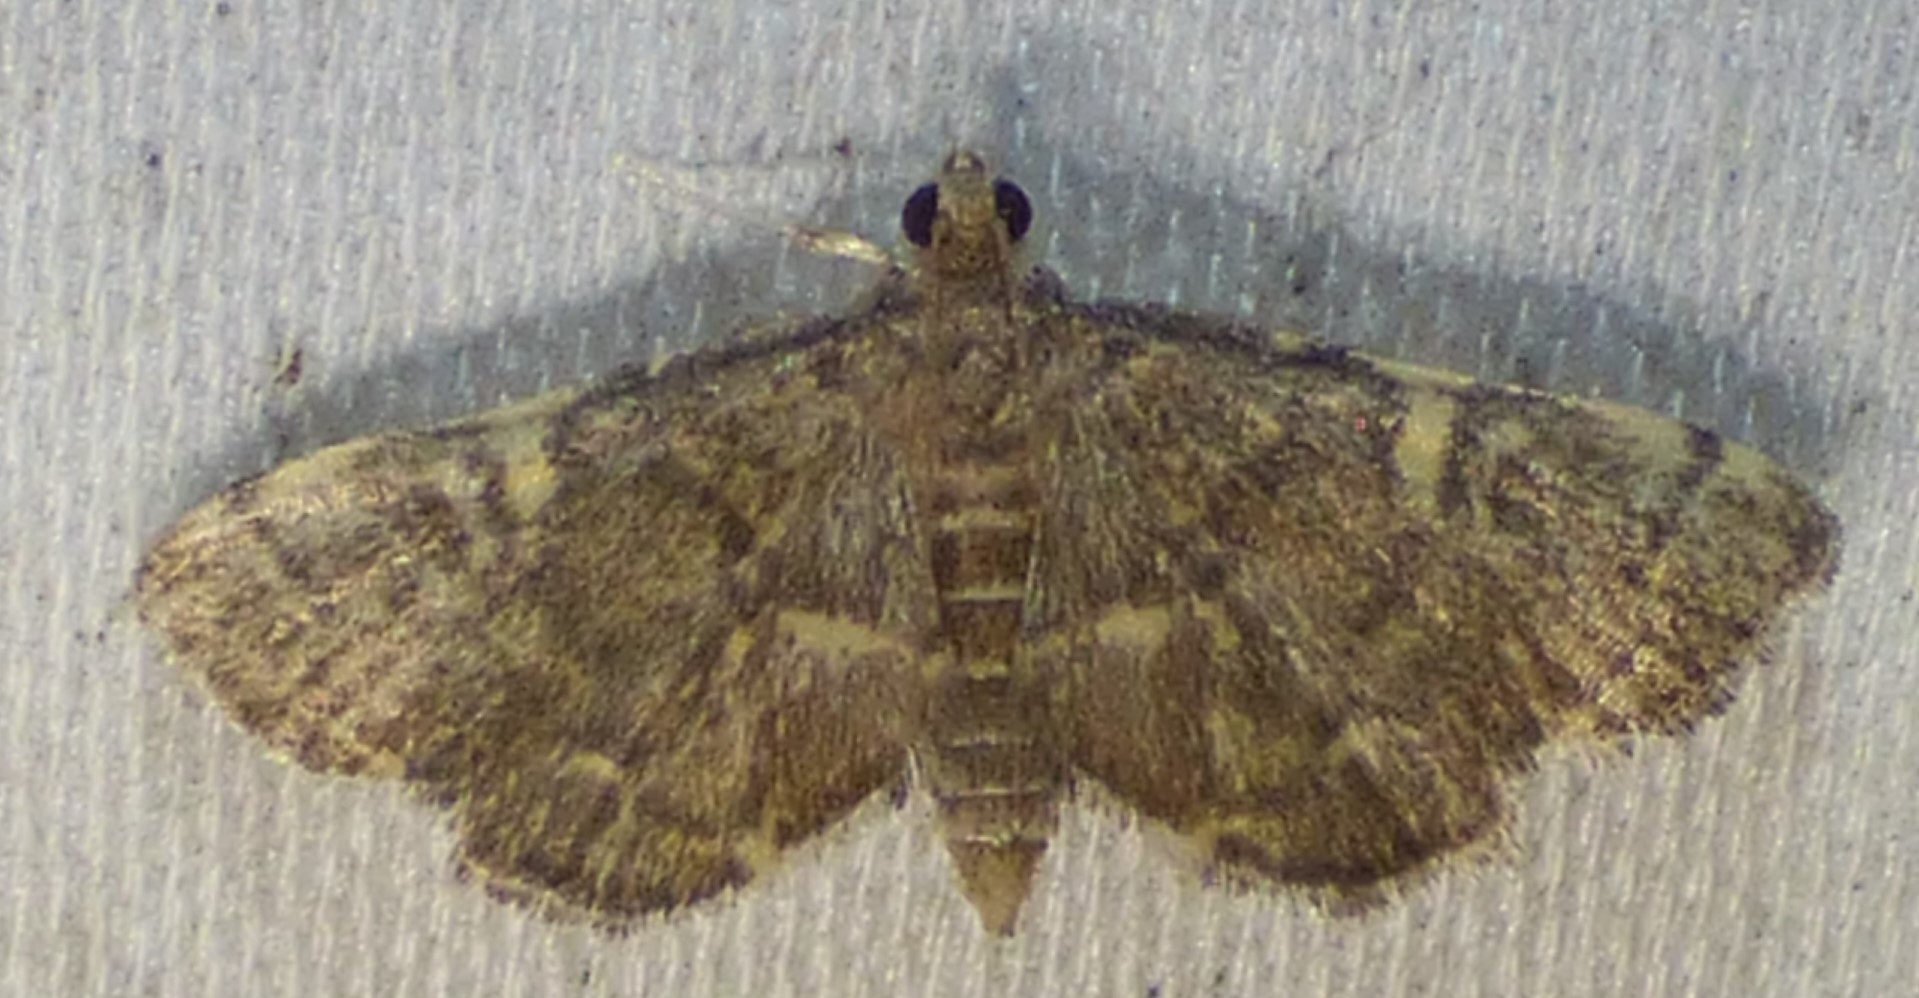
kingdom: Animalia
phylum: Arthropoda
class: Insecta
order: Lepidoptera
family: Crambidae
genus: Anageshna
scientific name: Anageshna primordialis
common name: Yellow-spotted webworm moth
